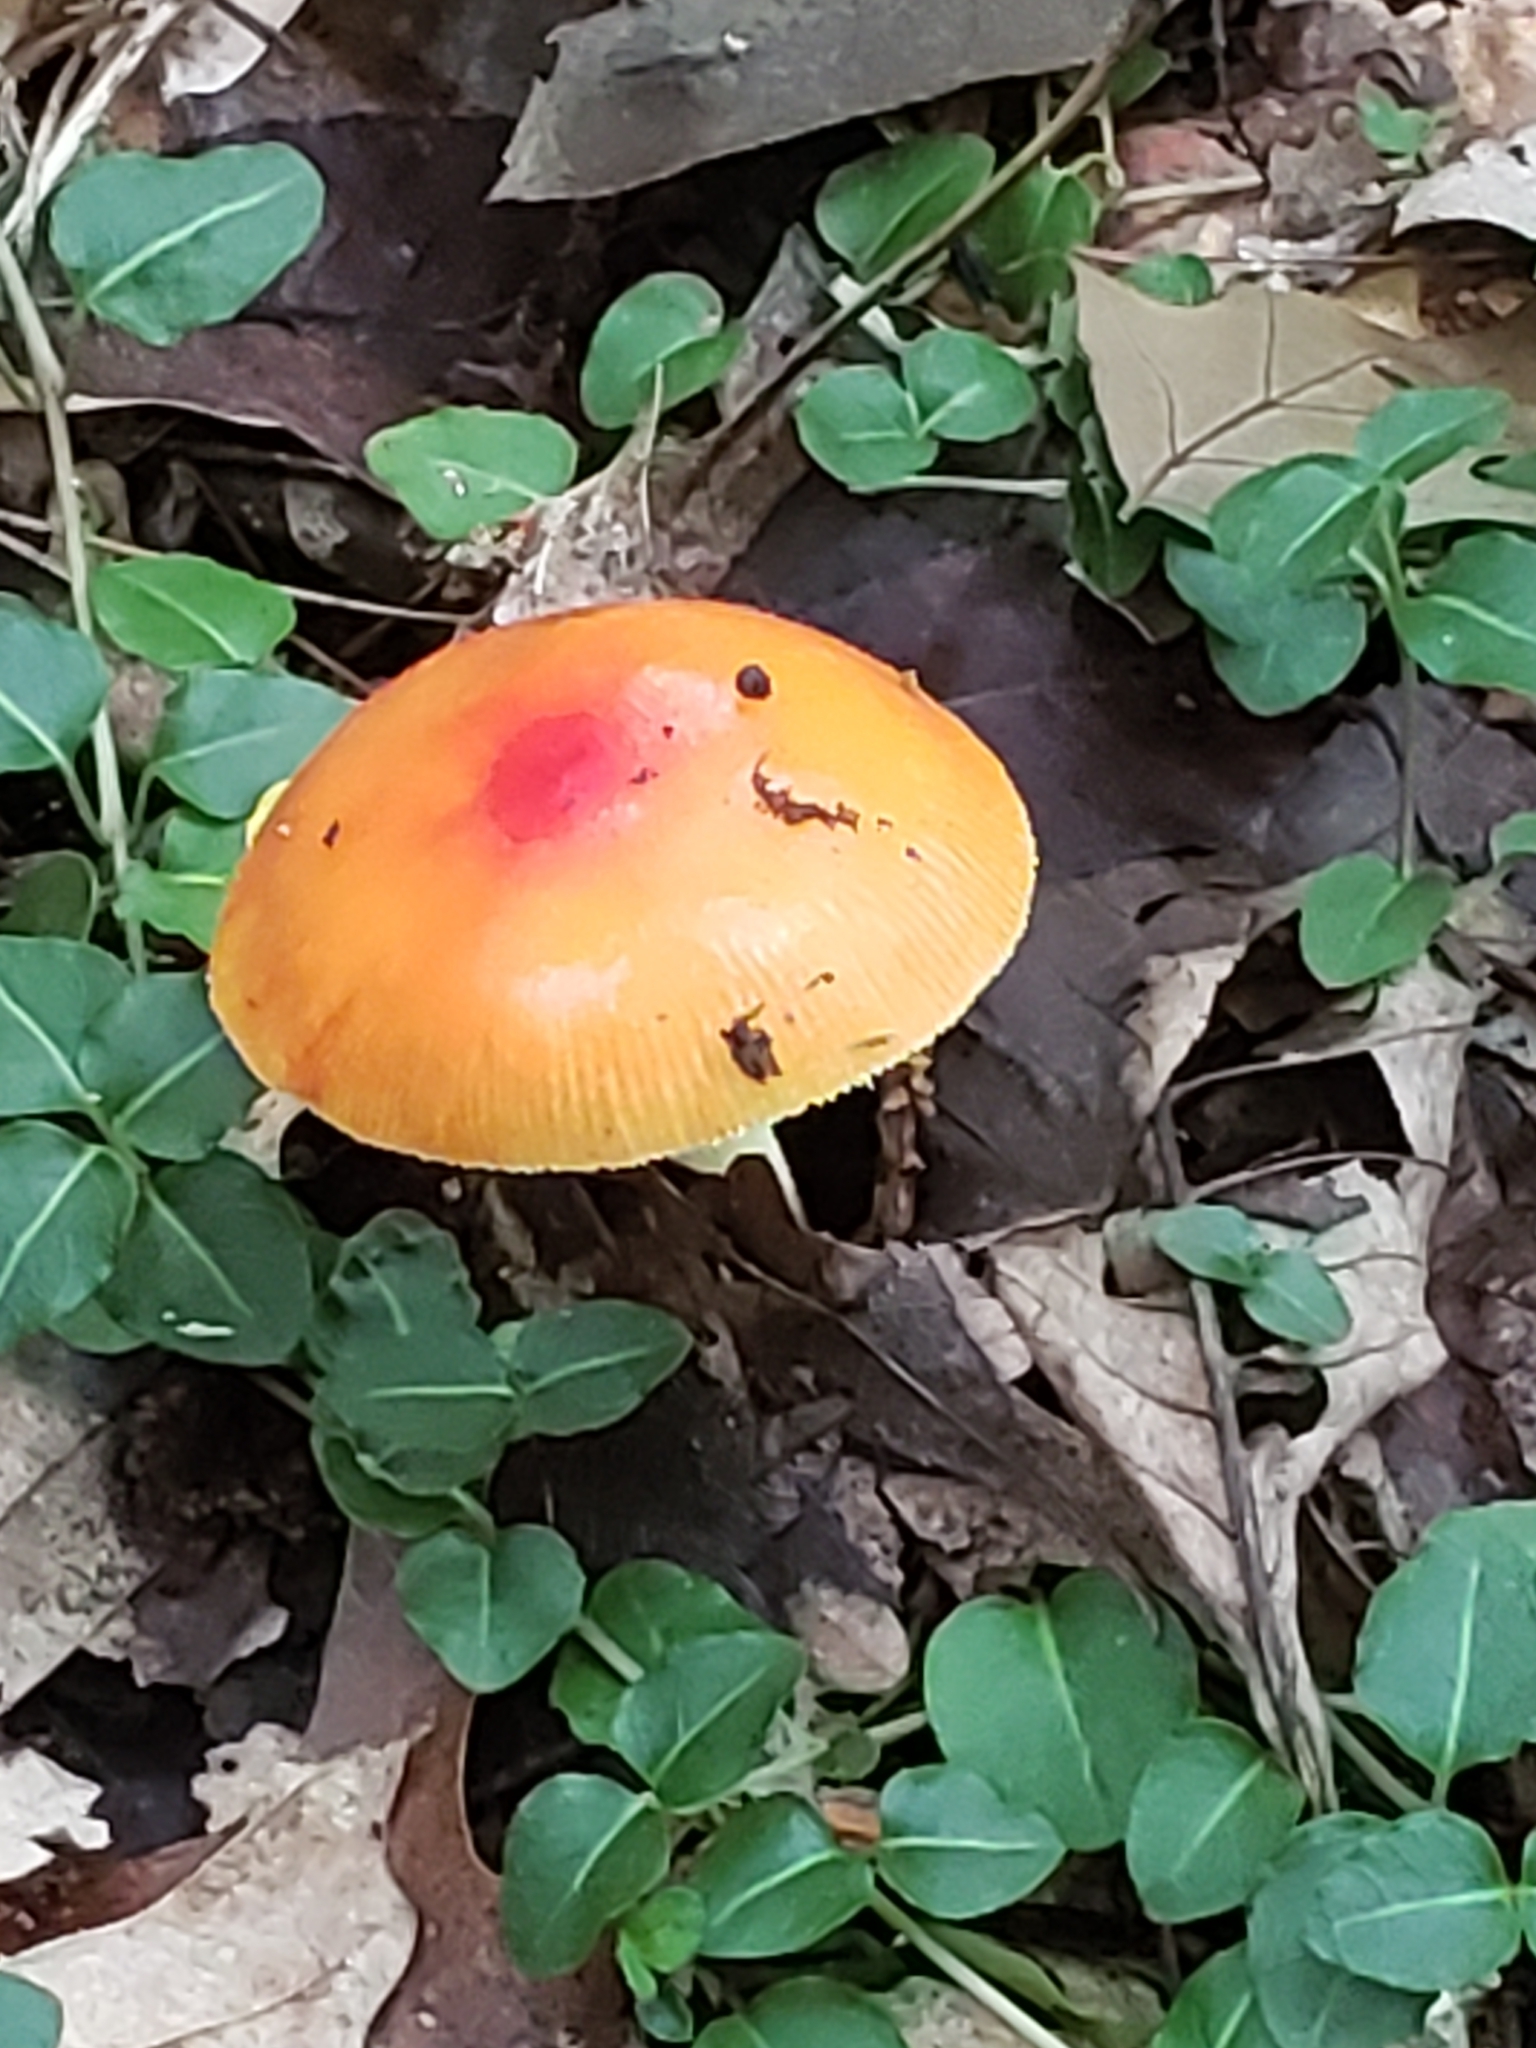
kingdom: Fungi
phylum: Basidiomycota
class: Agaricomycetes
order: Agaricales
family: Amanitaceae
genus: Amanita
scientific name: Amanita parcivolvata
